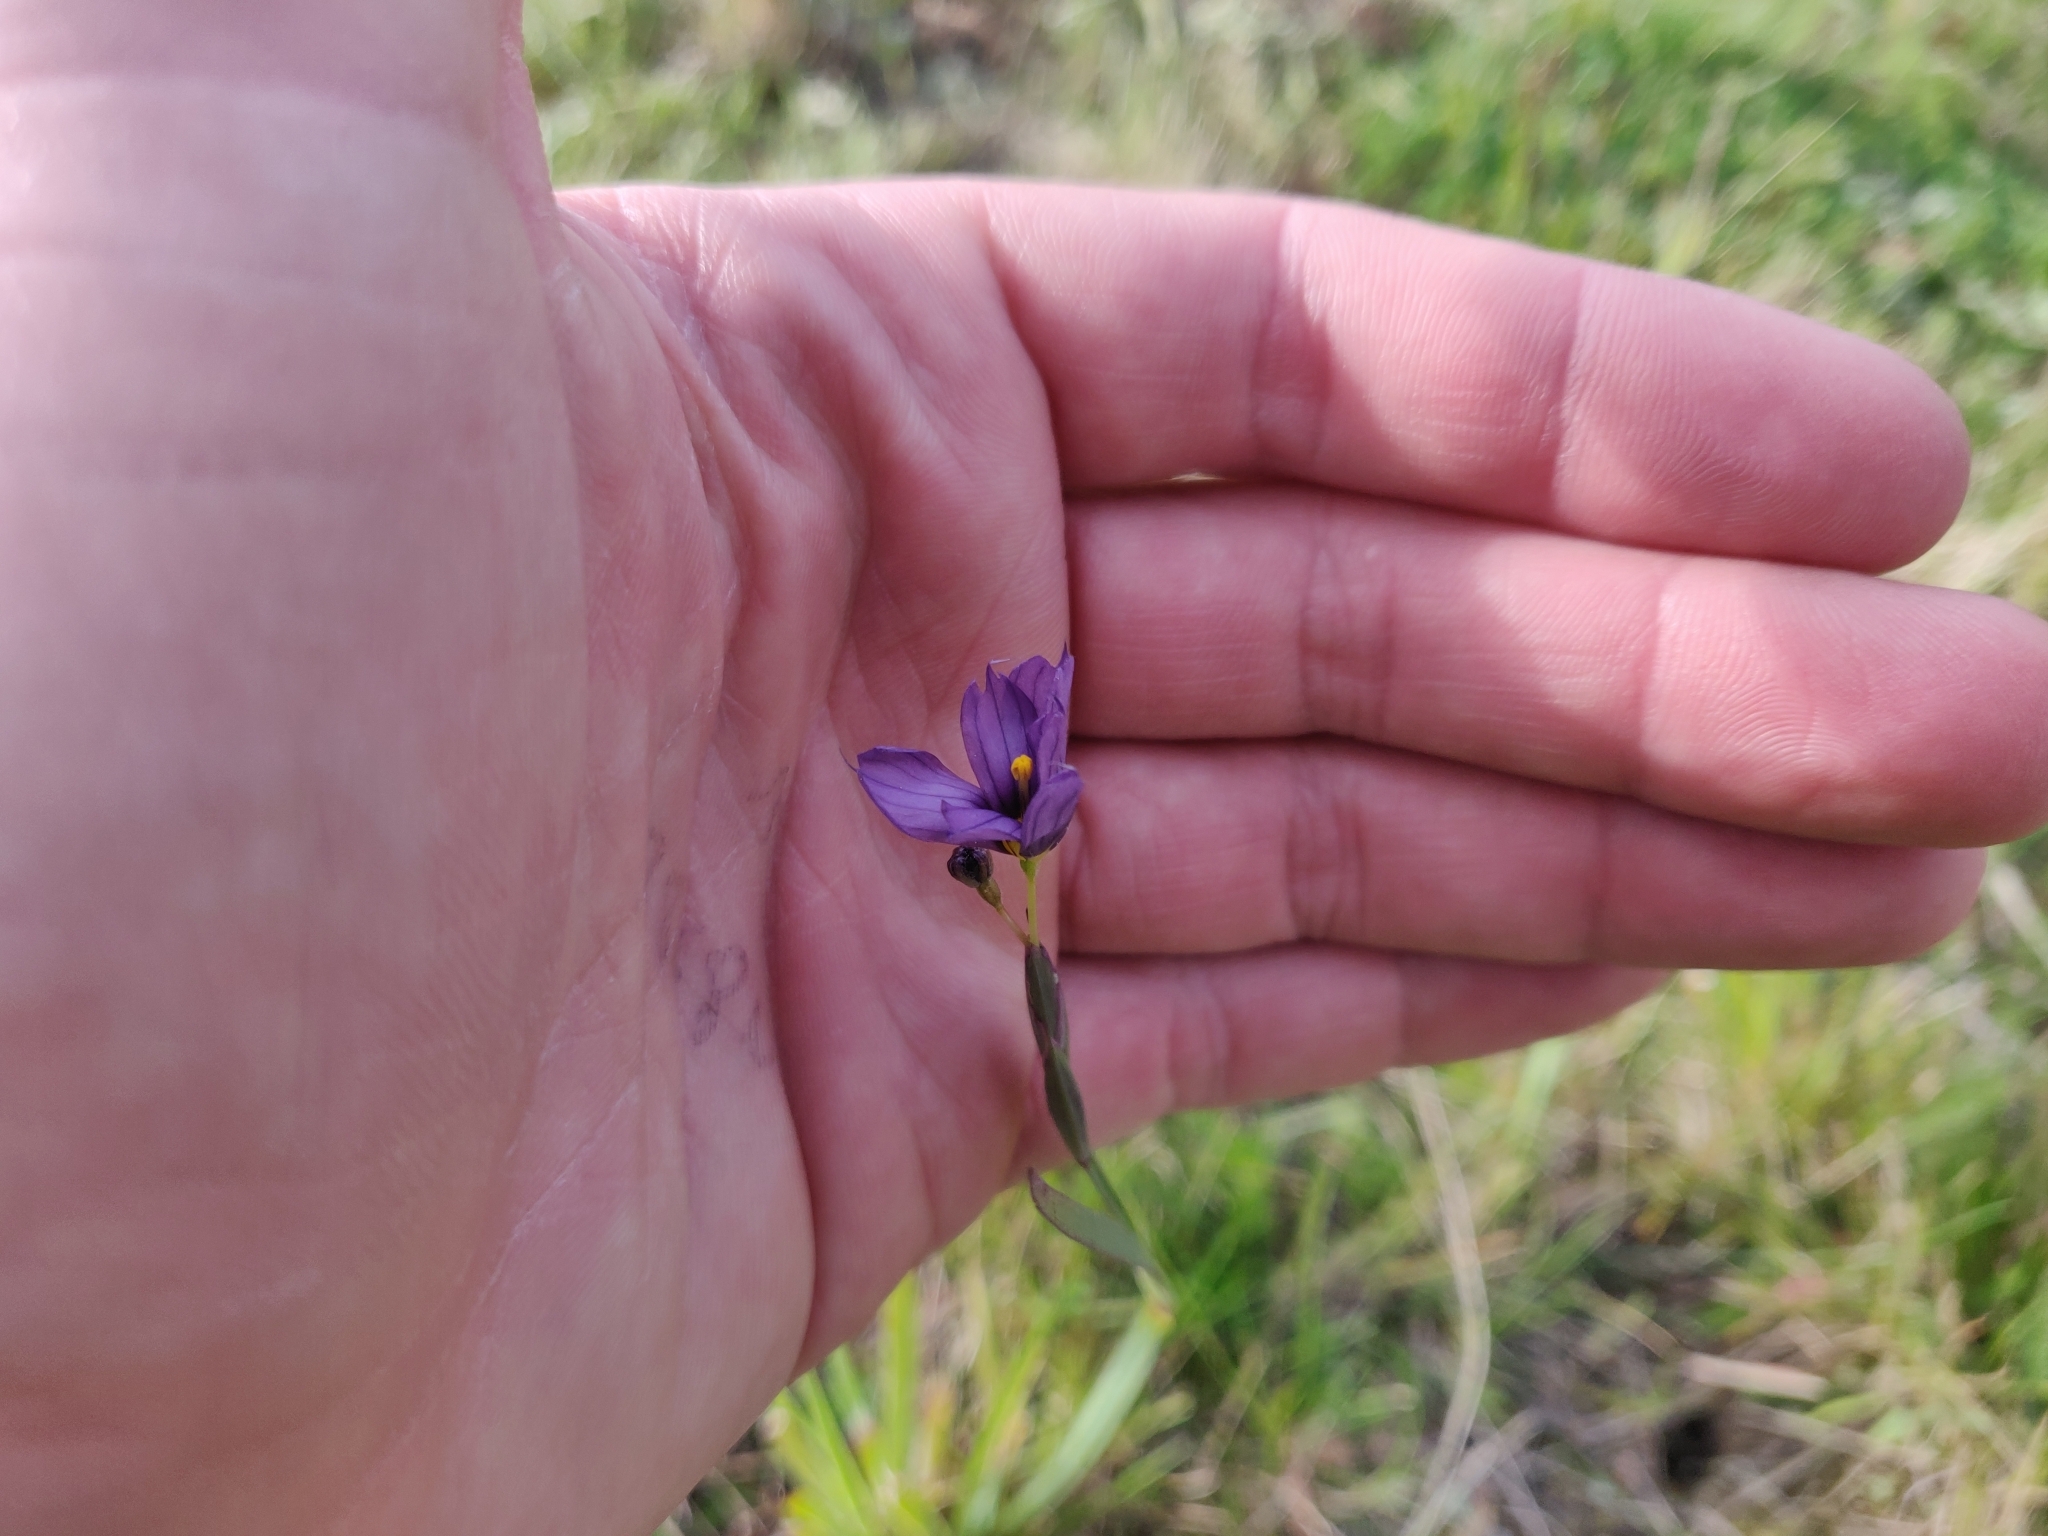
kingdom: Plantae
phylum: Tracheophyta
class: Liliopsida
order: Asparagales
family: Iridaceae
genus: Sisyrinchium
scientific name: Sisyrinchium bellum
